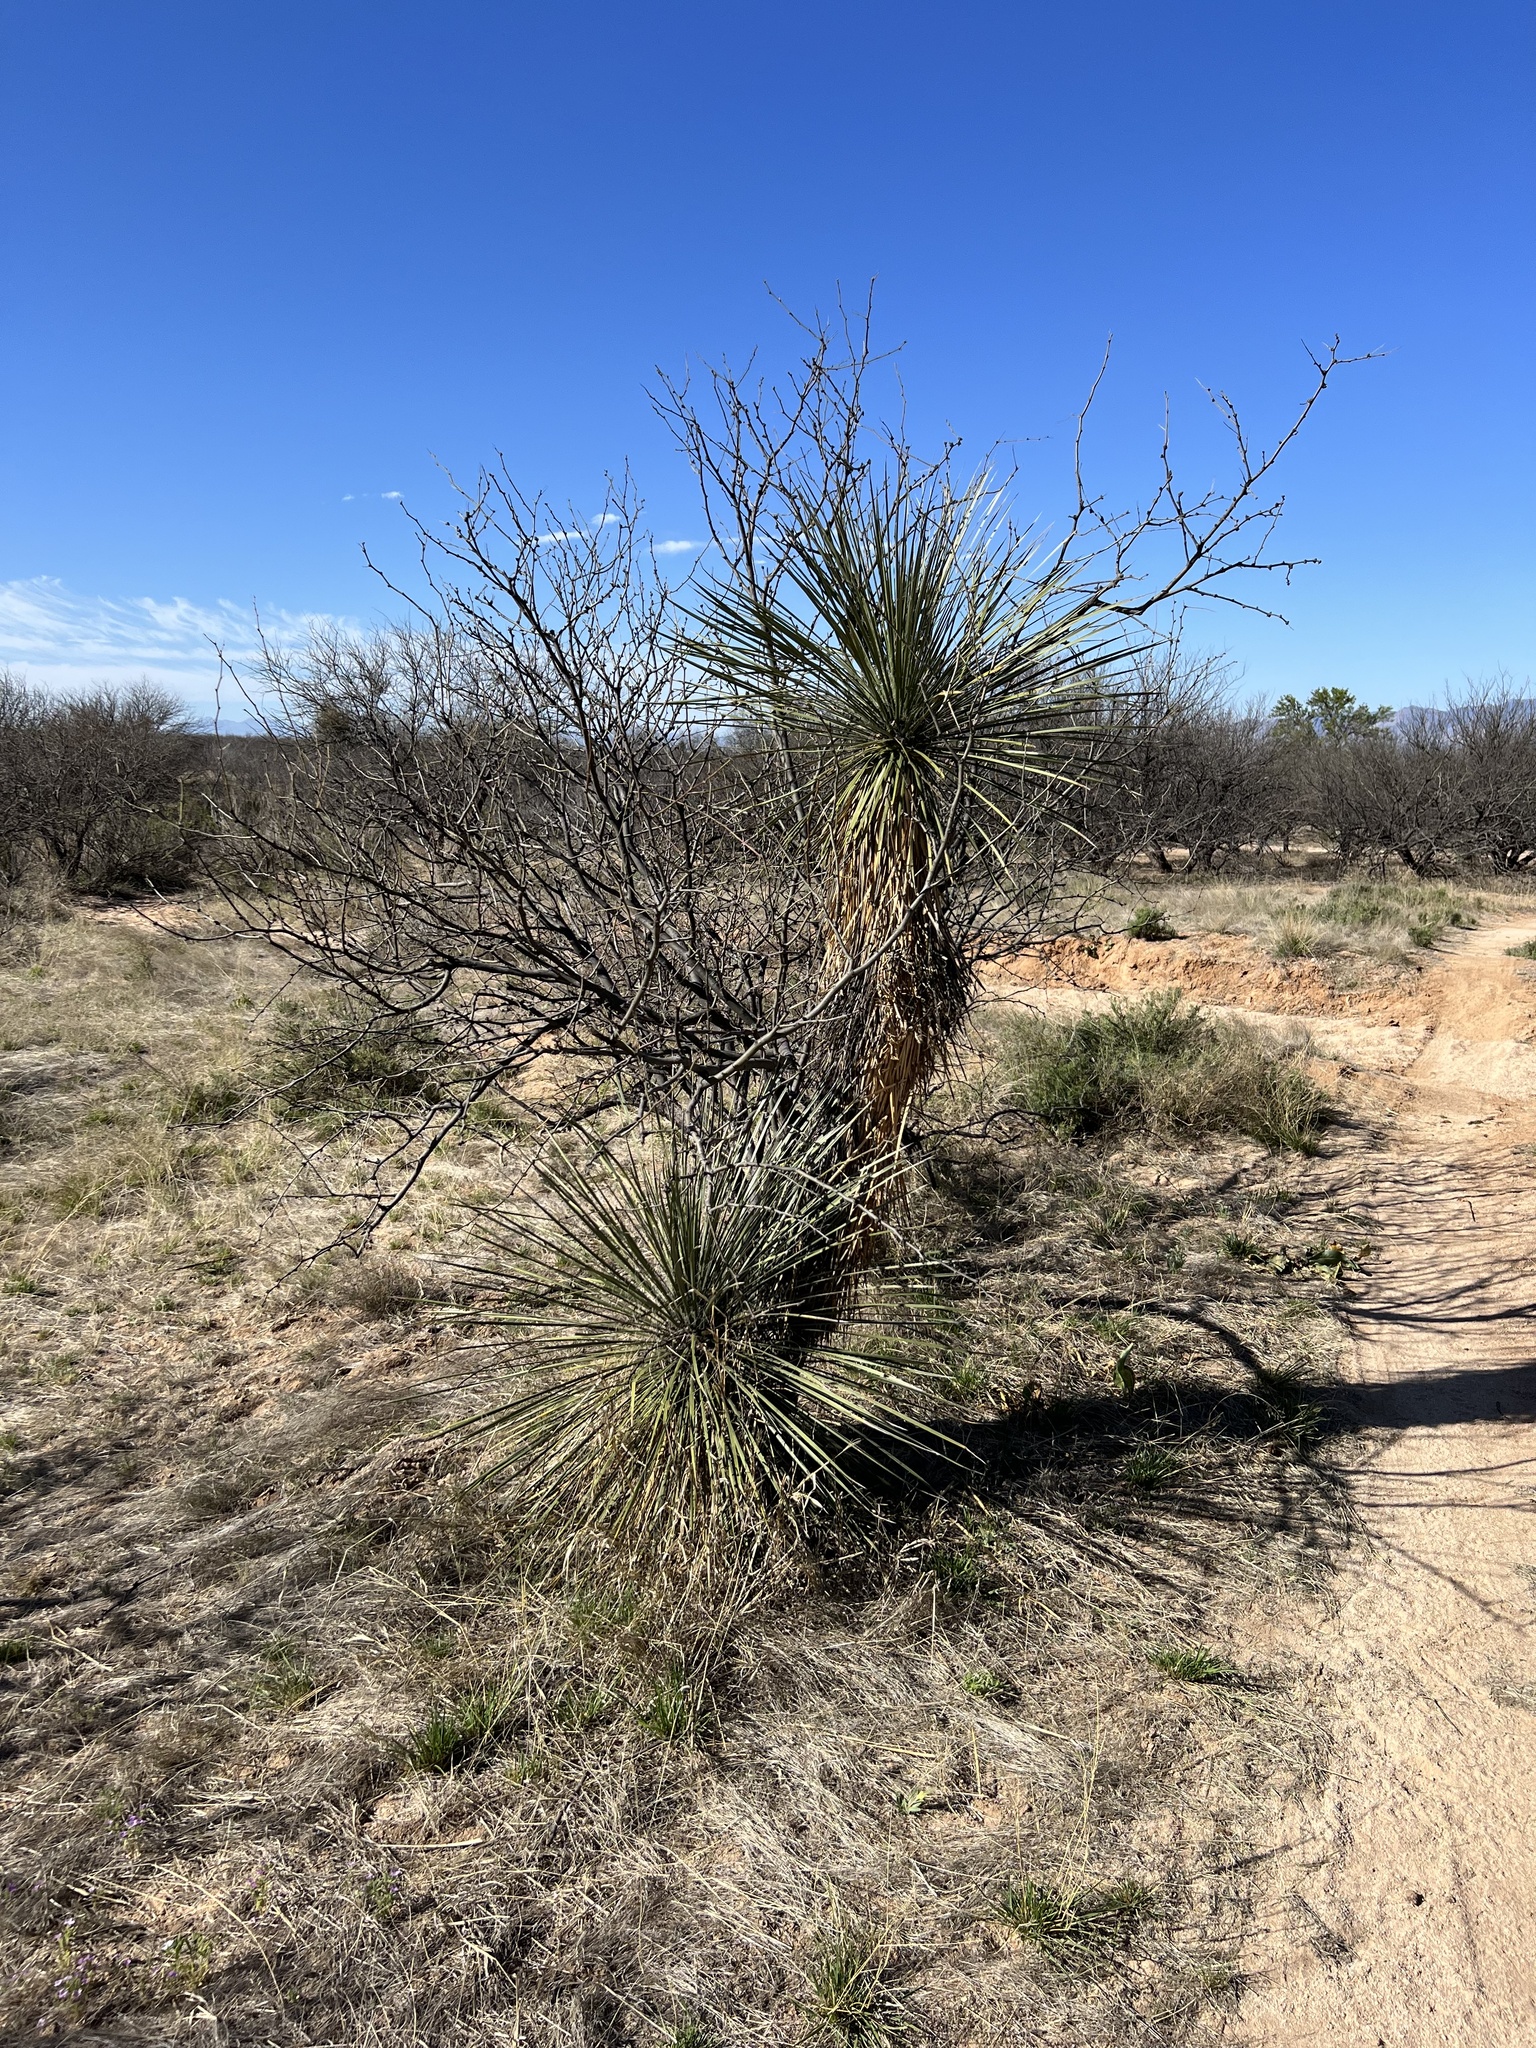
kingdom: Plantae
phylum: Tracheophyta
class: Liliopsida
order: Asparagales
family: Asparagaceae
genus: Yucca
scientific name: Yucca elata
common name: Palmella
